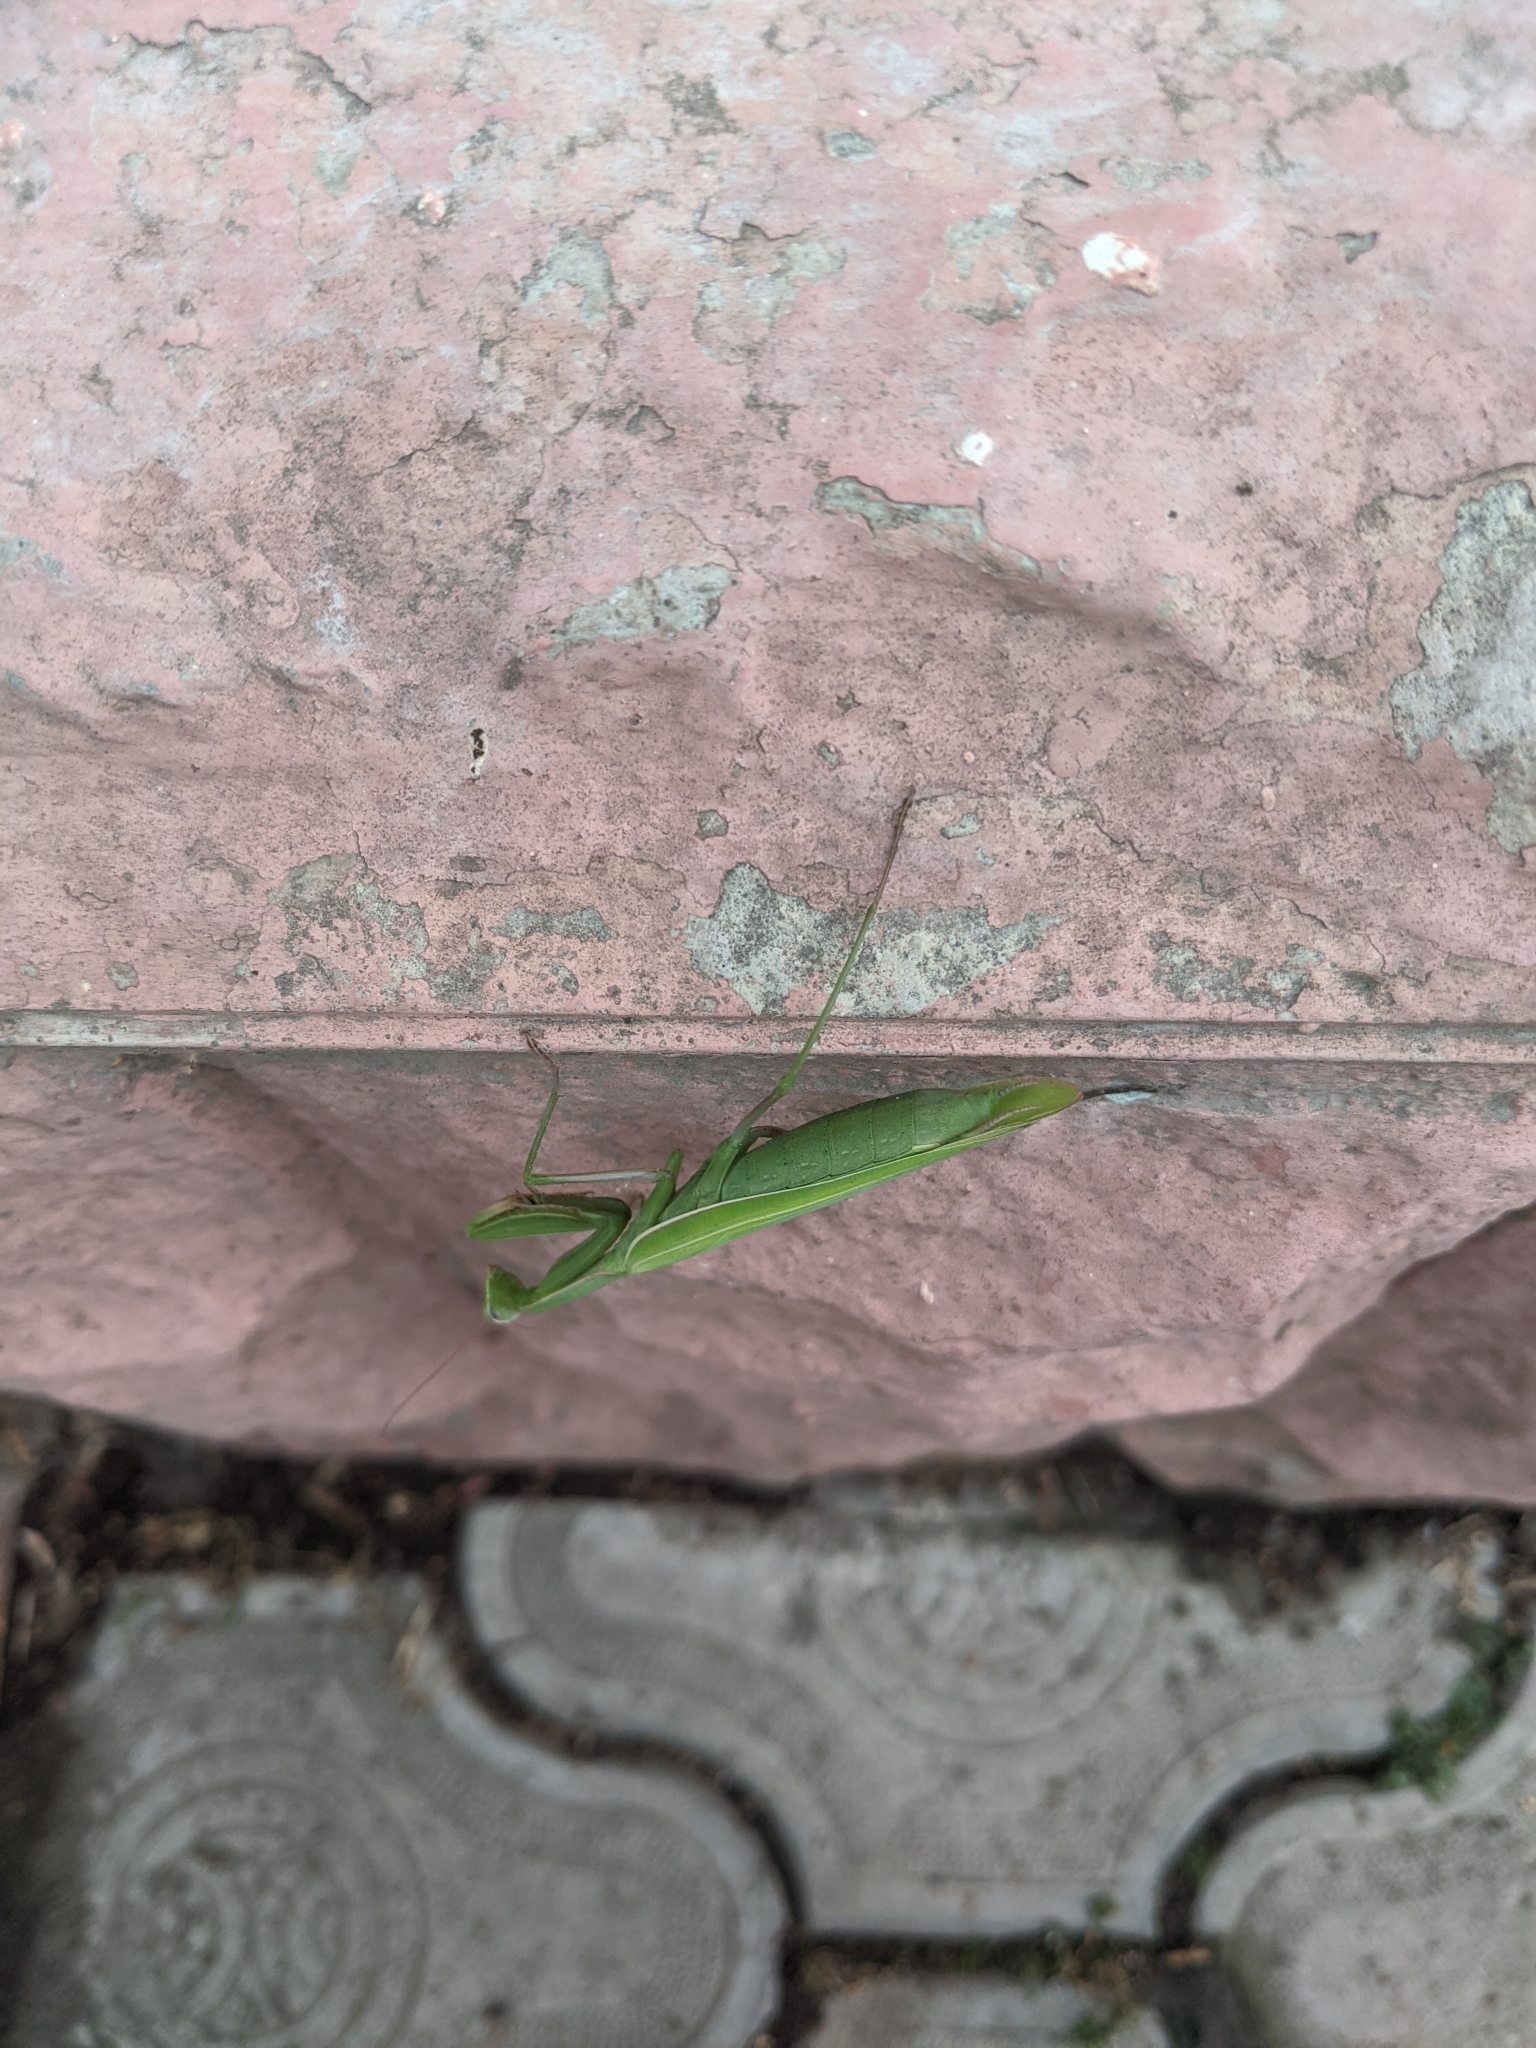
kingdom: Animalia
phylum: Arthropoda
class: Insecta
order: Mantodea
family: Mantidae
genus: Mantis
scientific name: Mantis religiosa
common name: Praying mantis
